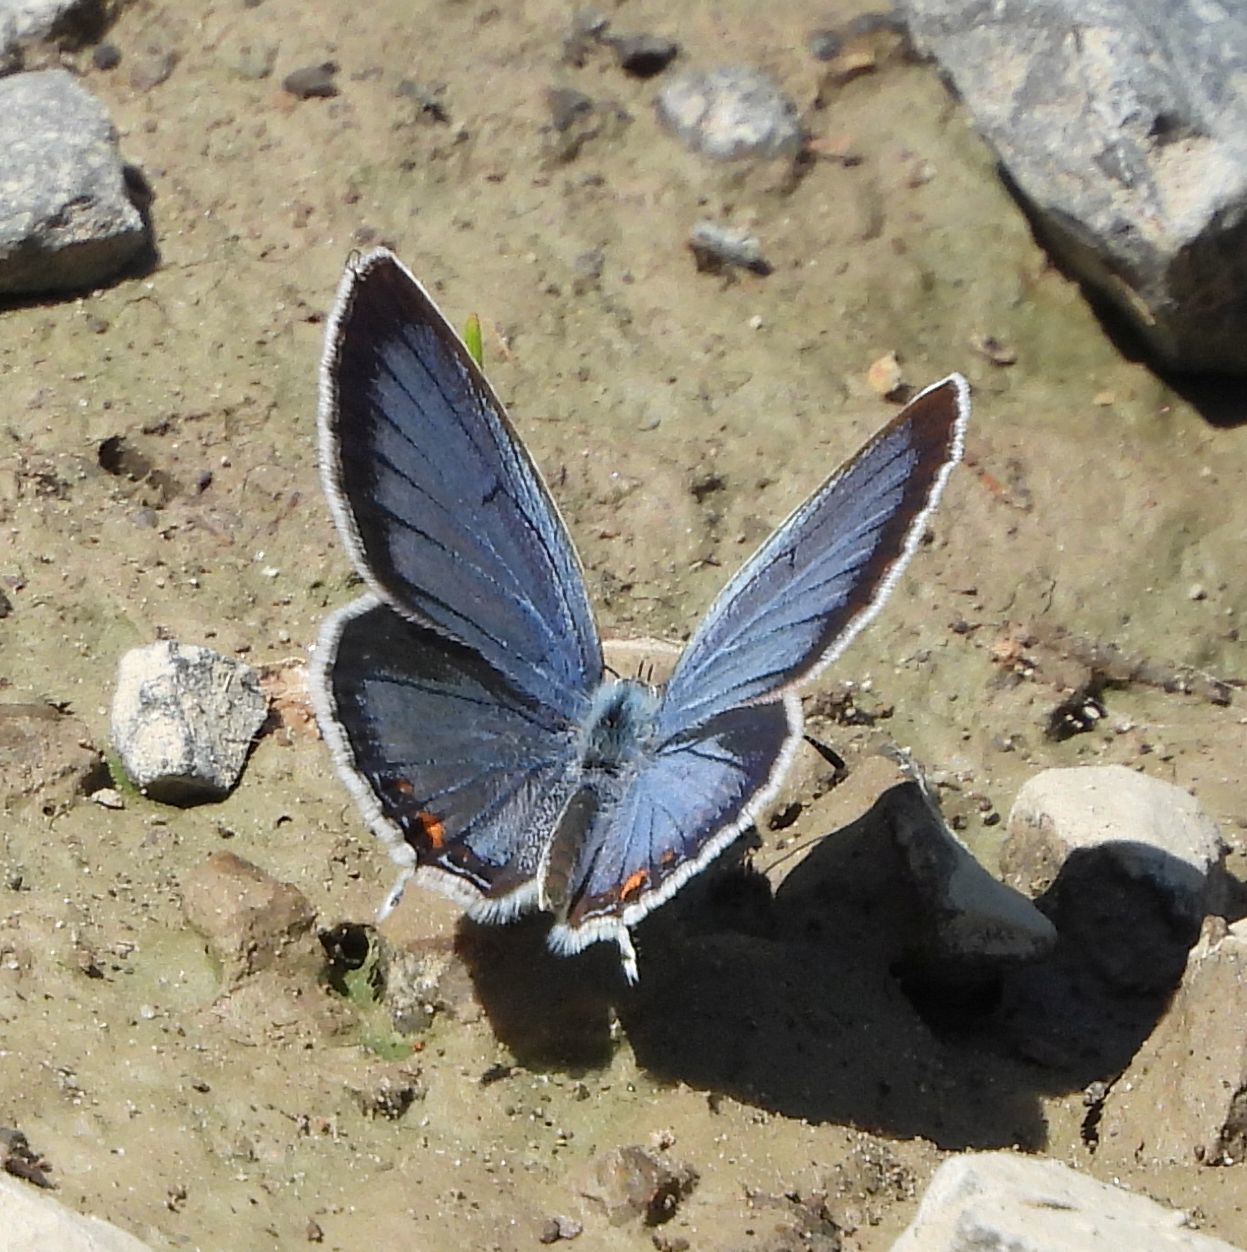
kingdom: Animalia
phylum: Arthropoda
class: Insecta
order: Lepidoptera
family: Lycaenidae
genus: Elkalyce
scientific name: Elkalyce comyntas
